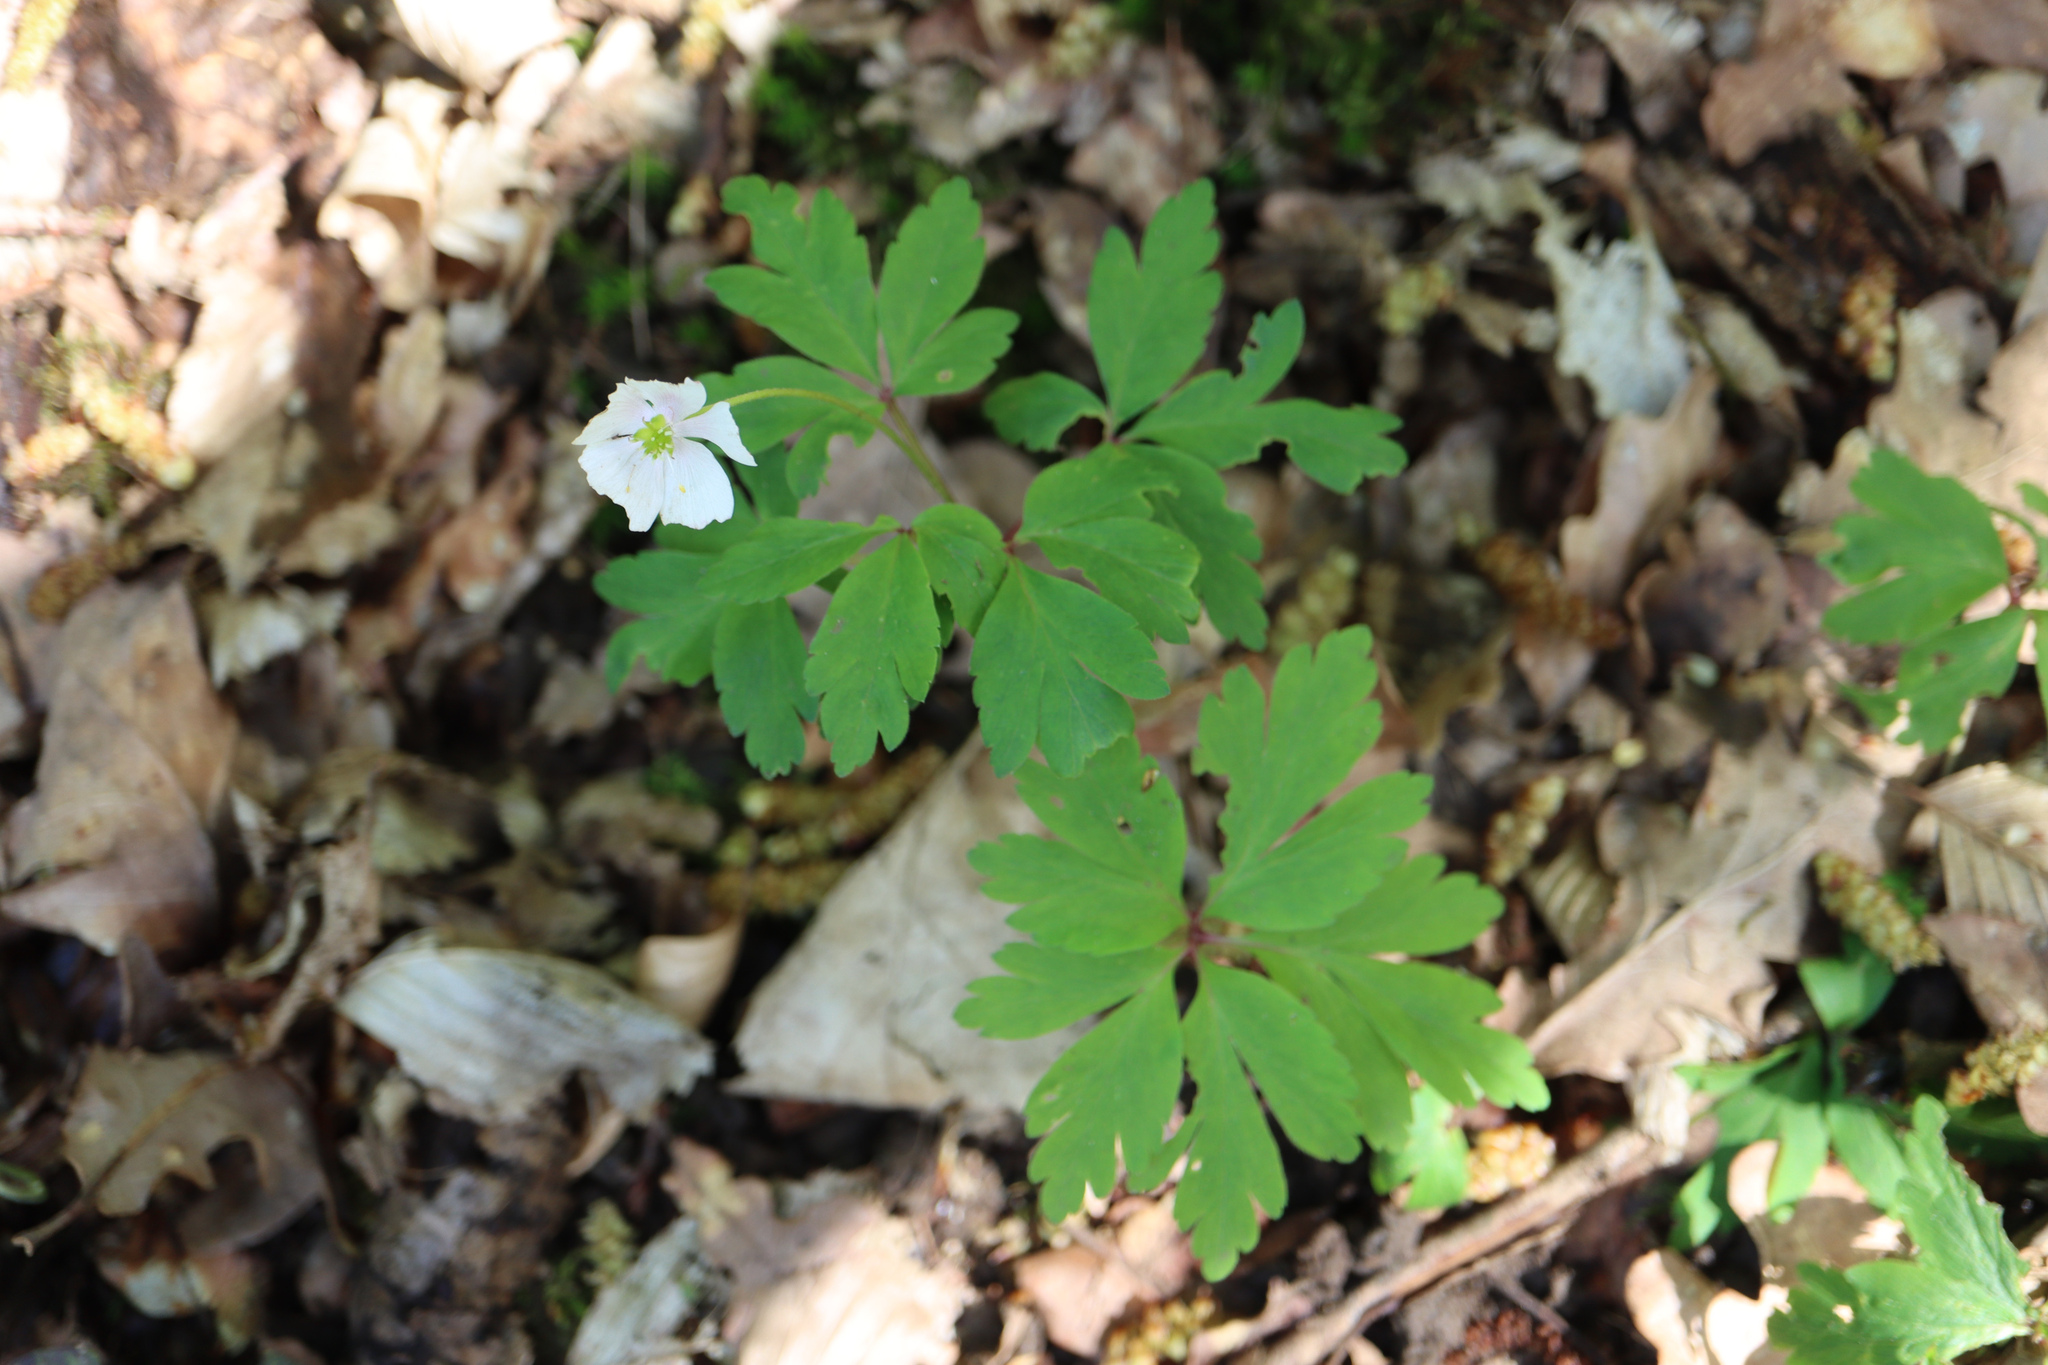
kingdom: Plantae
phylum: Tracheophyta
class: Magnoliopsida
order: Ranunculales
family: Ranunculaceae
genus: Anemone
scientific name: Anemone nemorosa
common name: Wood anemone
